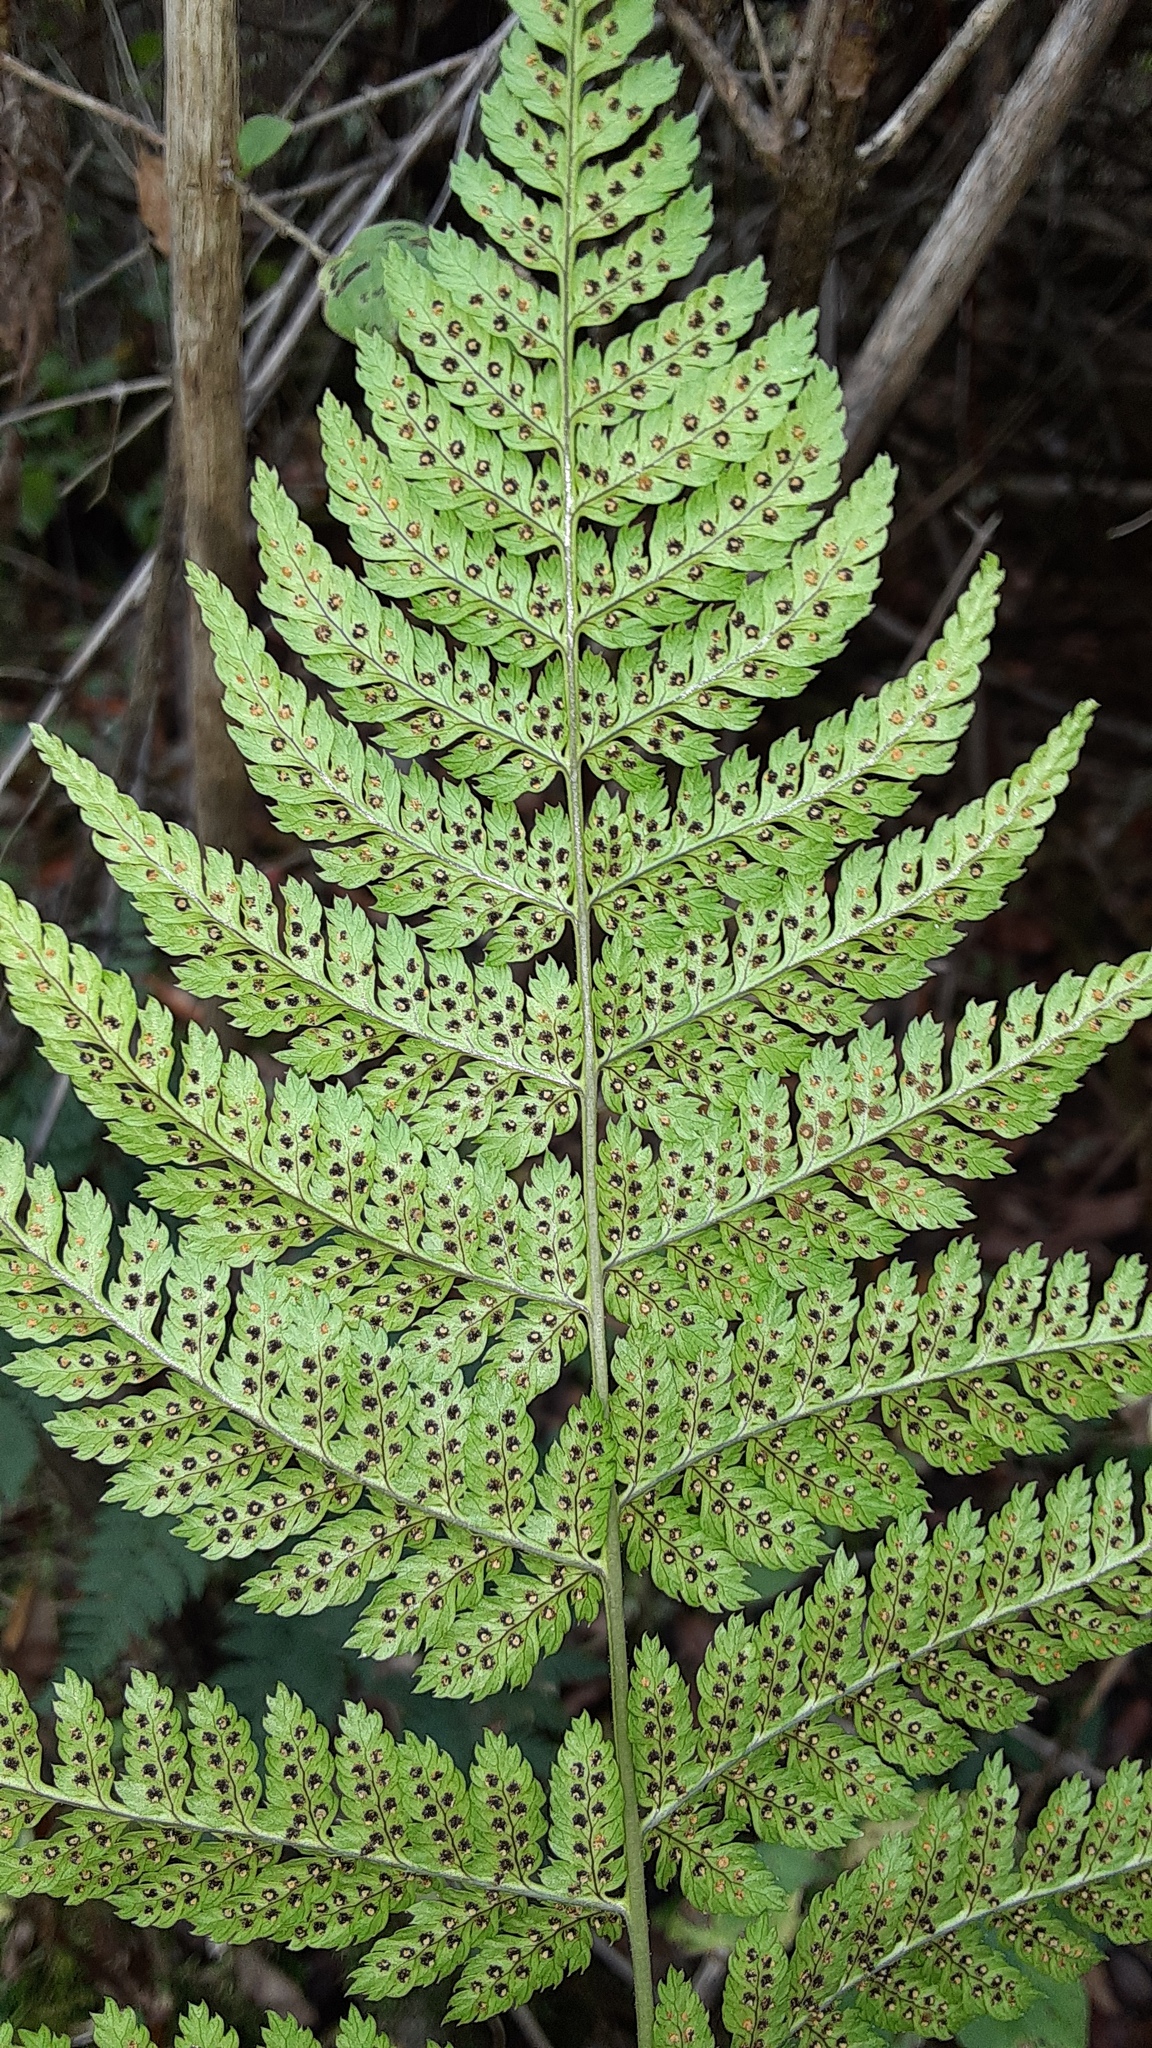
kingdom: Plantae
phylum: Tracheophyta
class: Polypodiopsida
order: Polypodiales
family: Dryopteridaceae
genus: Dryopteris
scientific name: Dryopteris intermedia
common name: Evergreen wood fern
